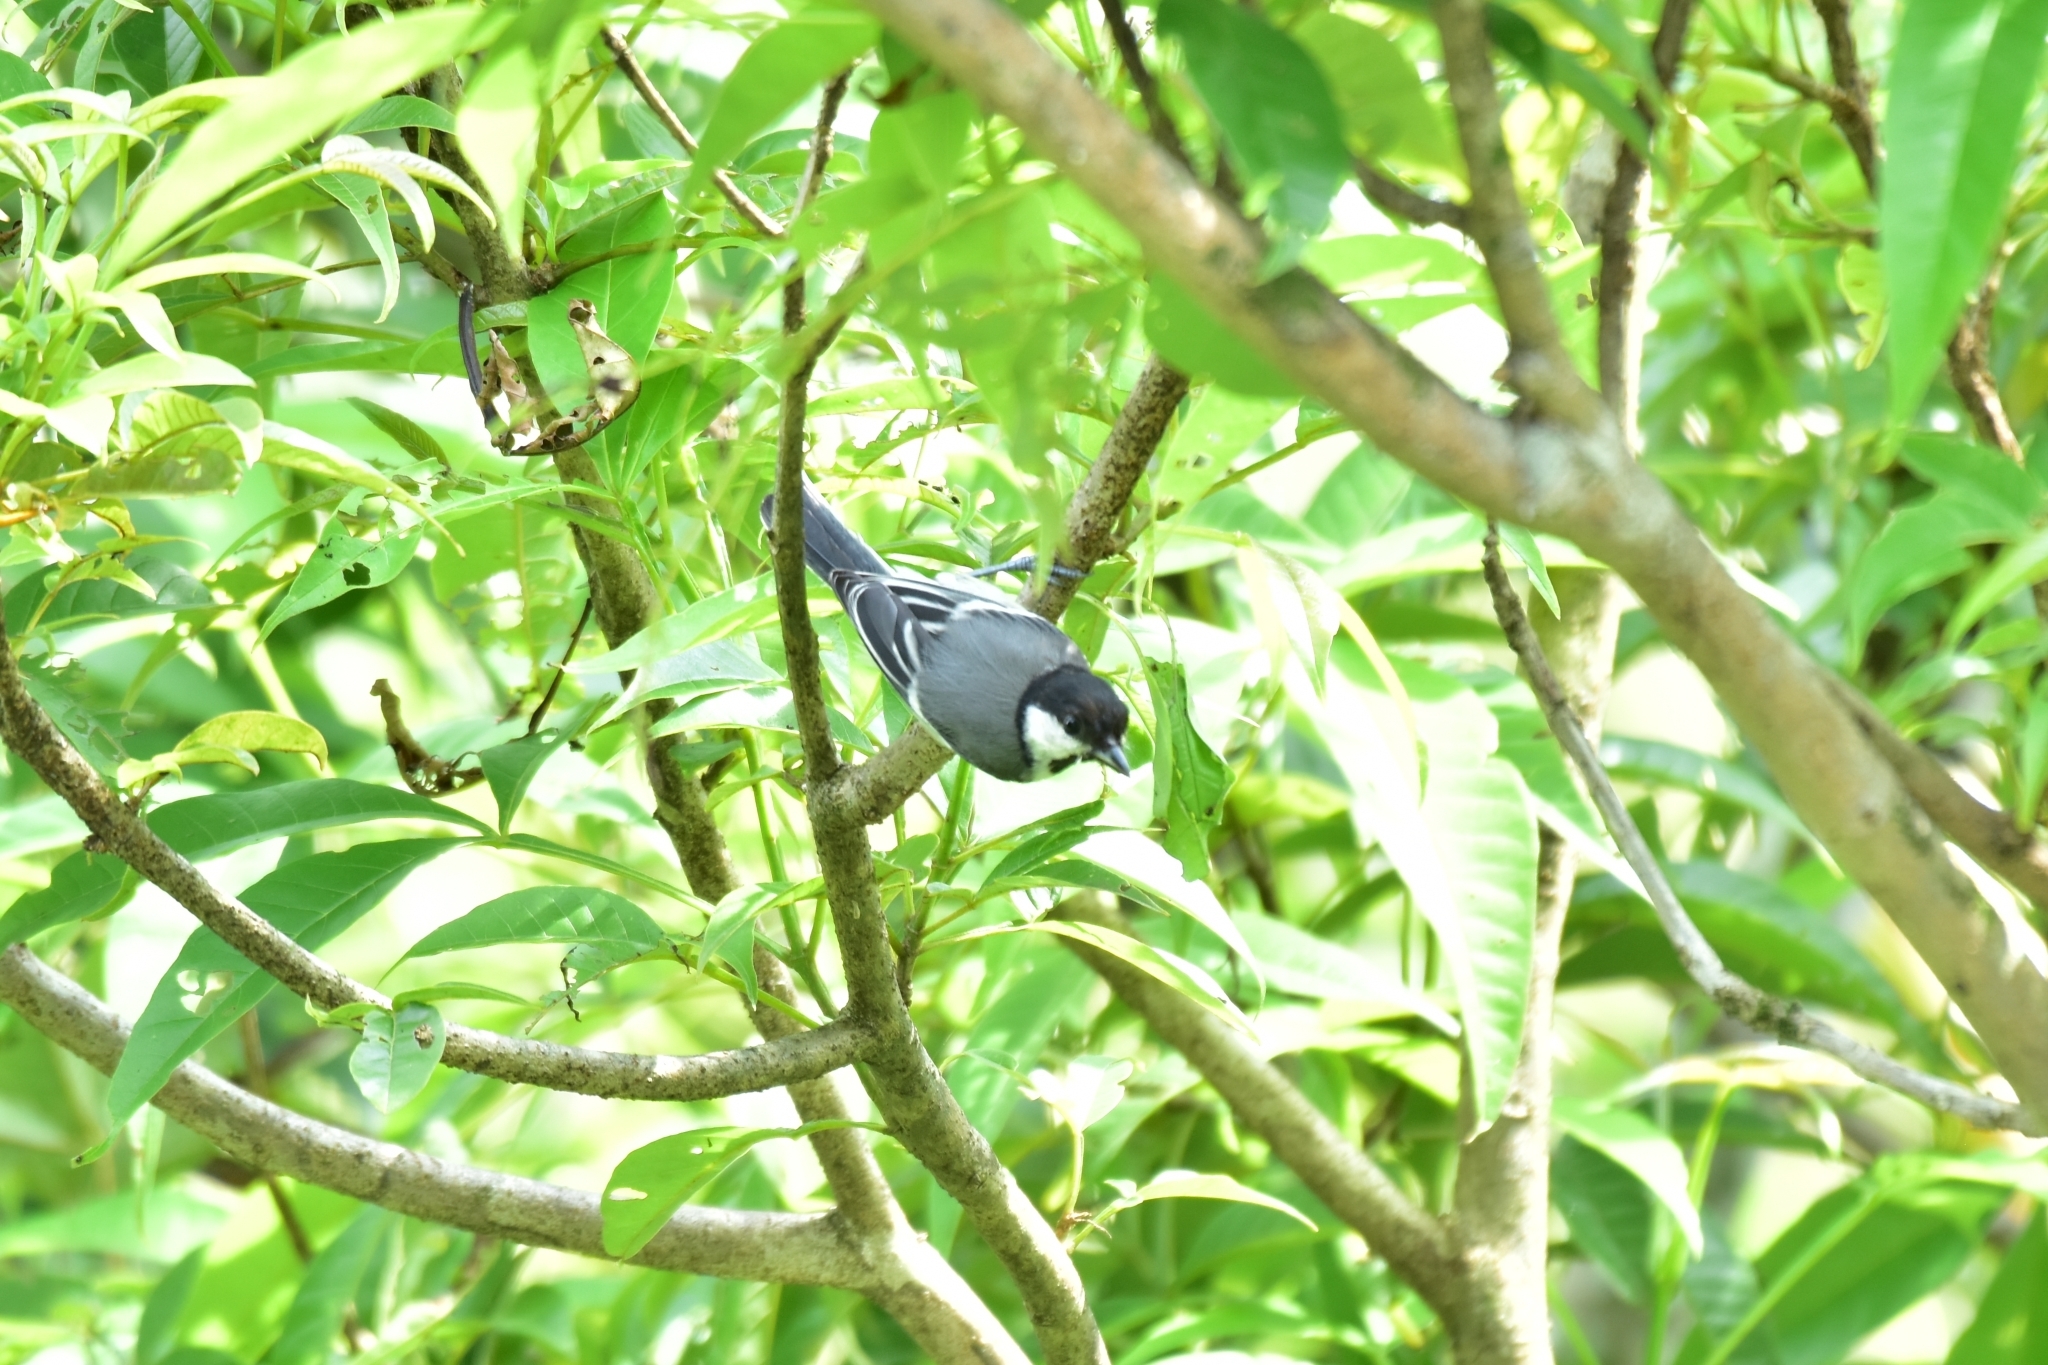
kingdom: Animalia
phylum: Chordata
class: Aves
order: Passeriformes
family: Paridae
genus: Parus
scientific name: Parus cinereus
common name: Cinereous tit
